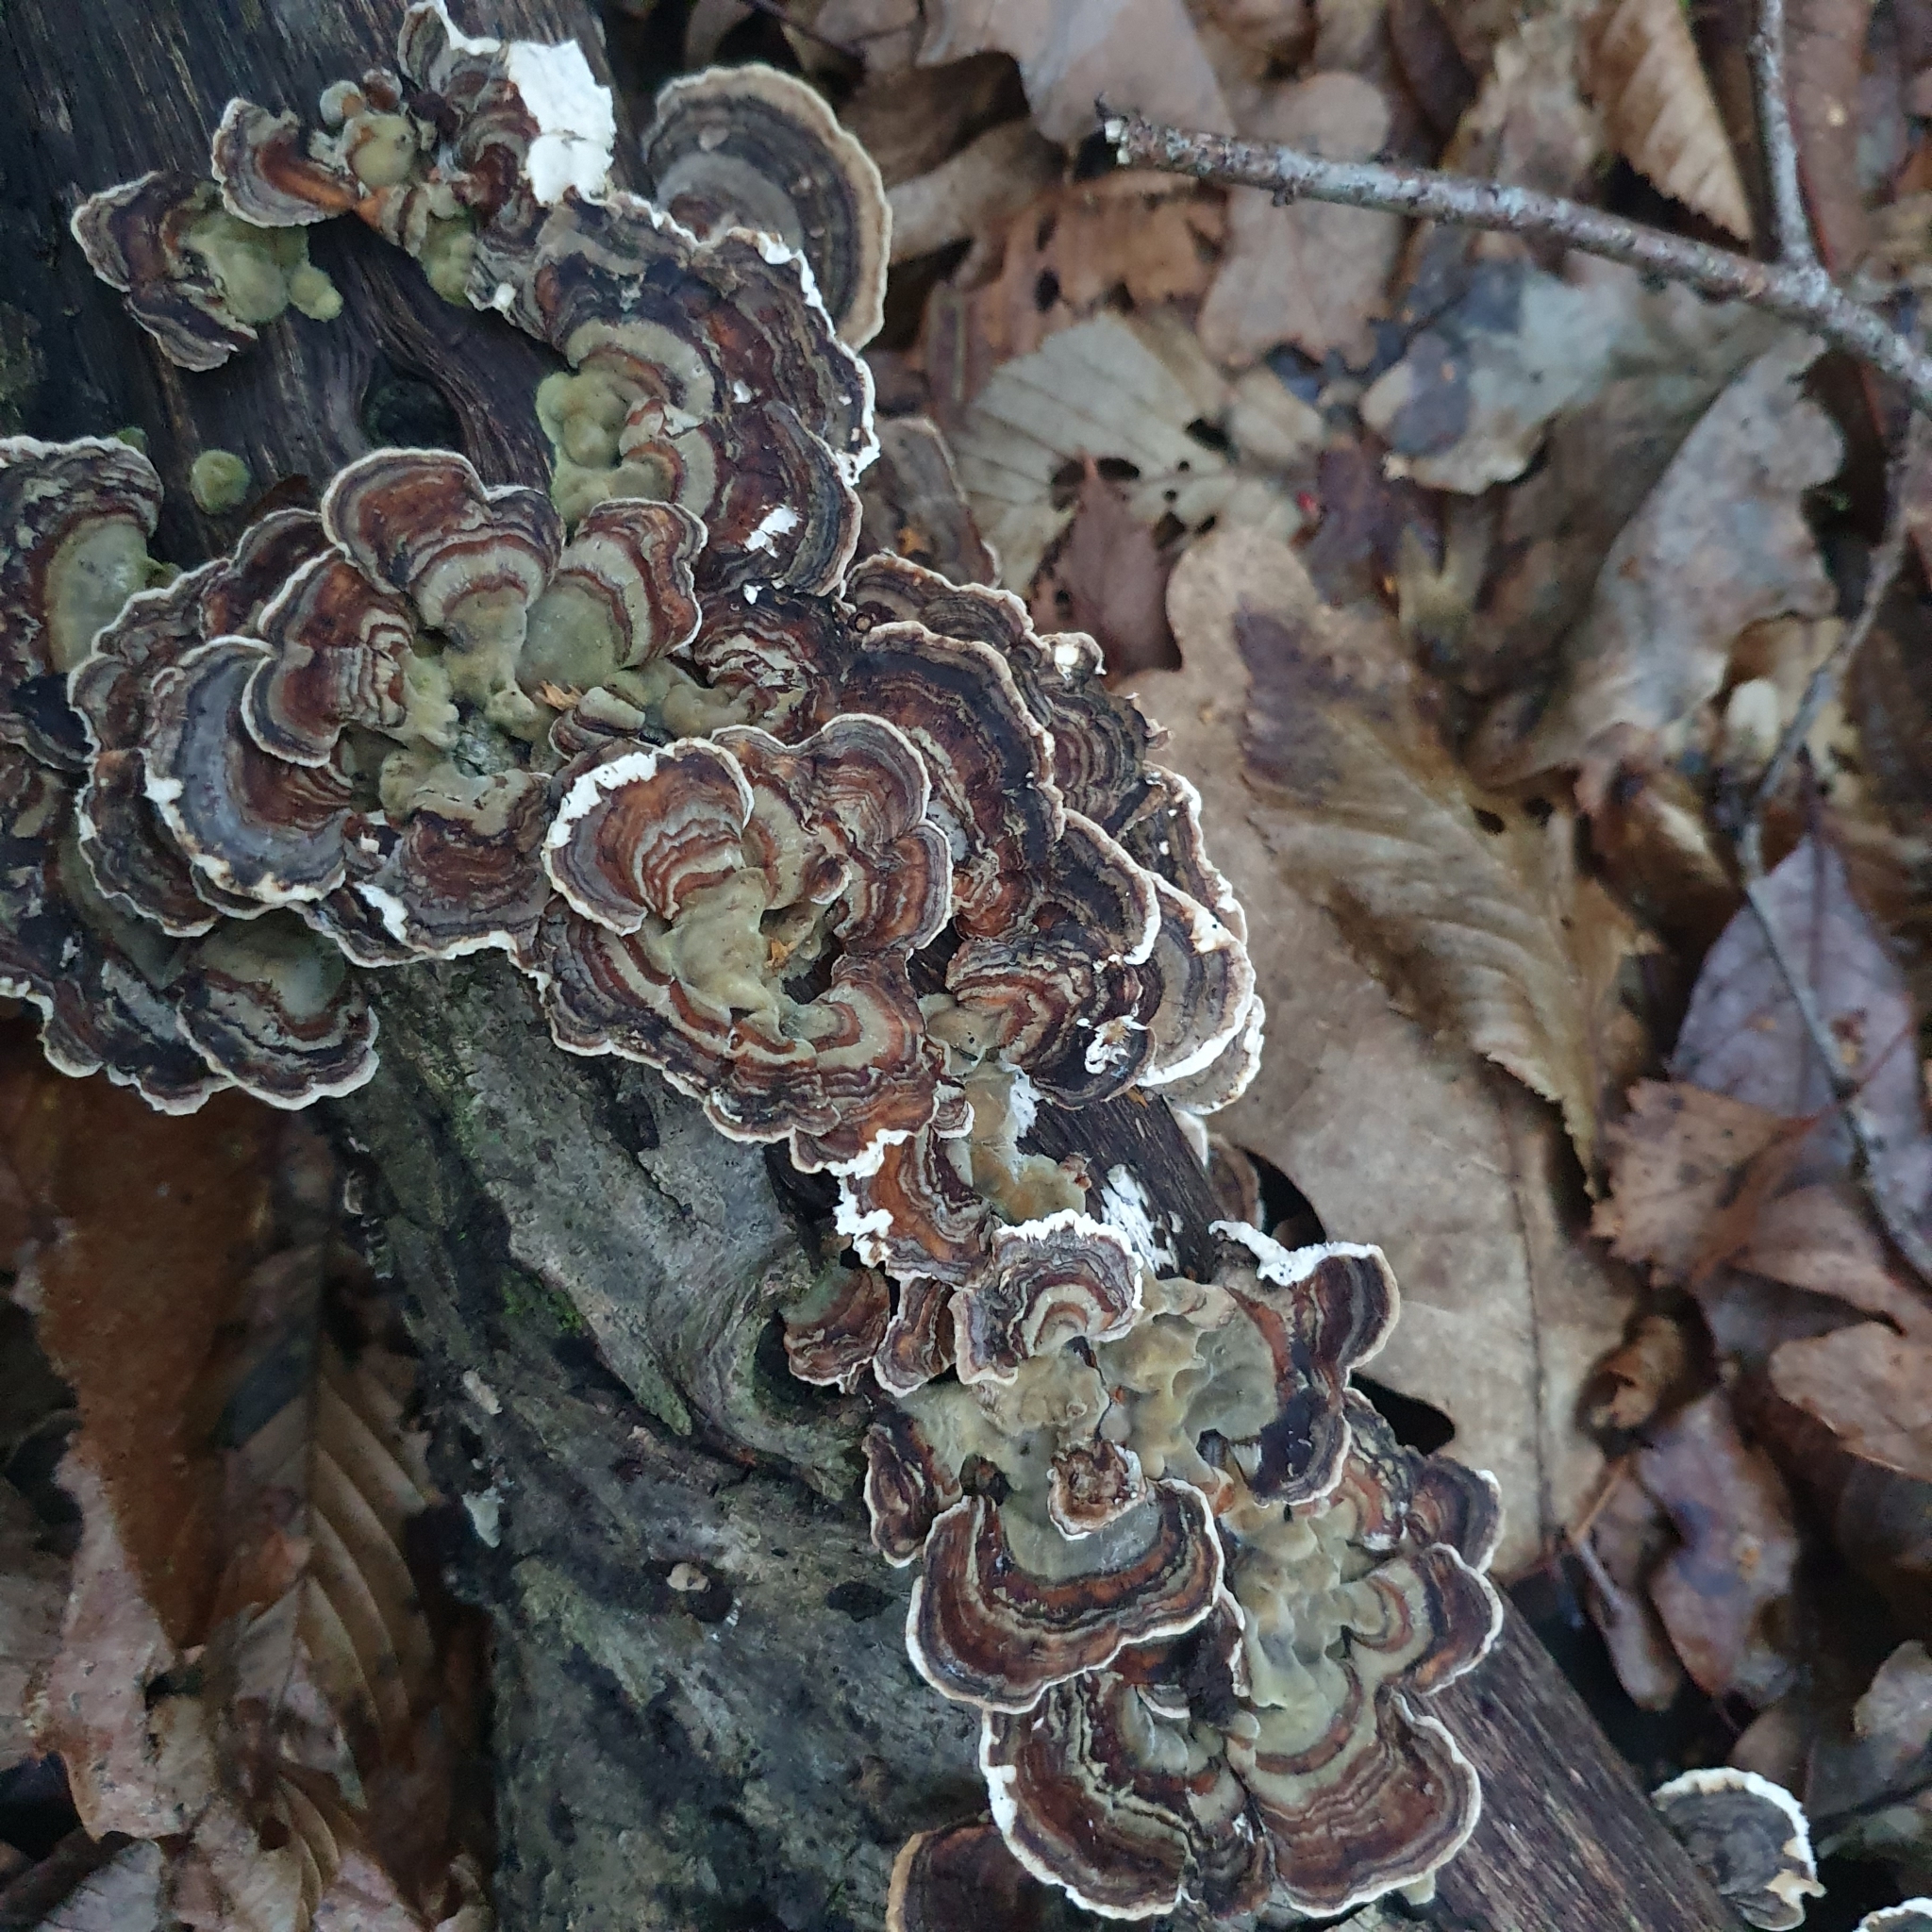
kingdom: Fungi
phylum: Basidiomycota
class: Agaricomycetes
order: Polyporales
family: Polyporaceae
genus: Trametes
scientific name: Trametes versicolor
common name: Turkeytail
